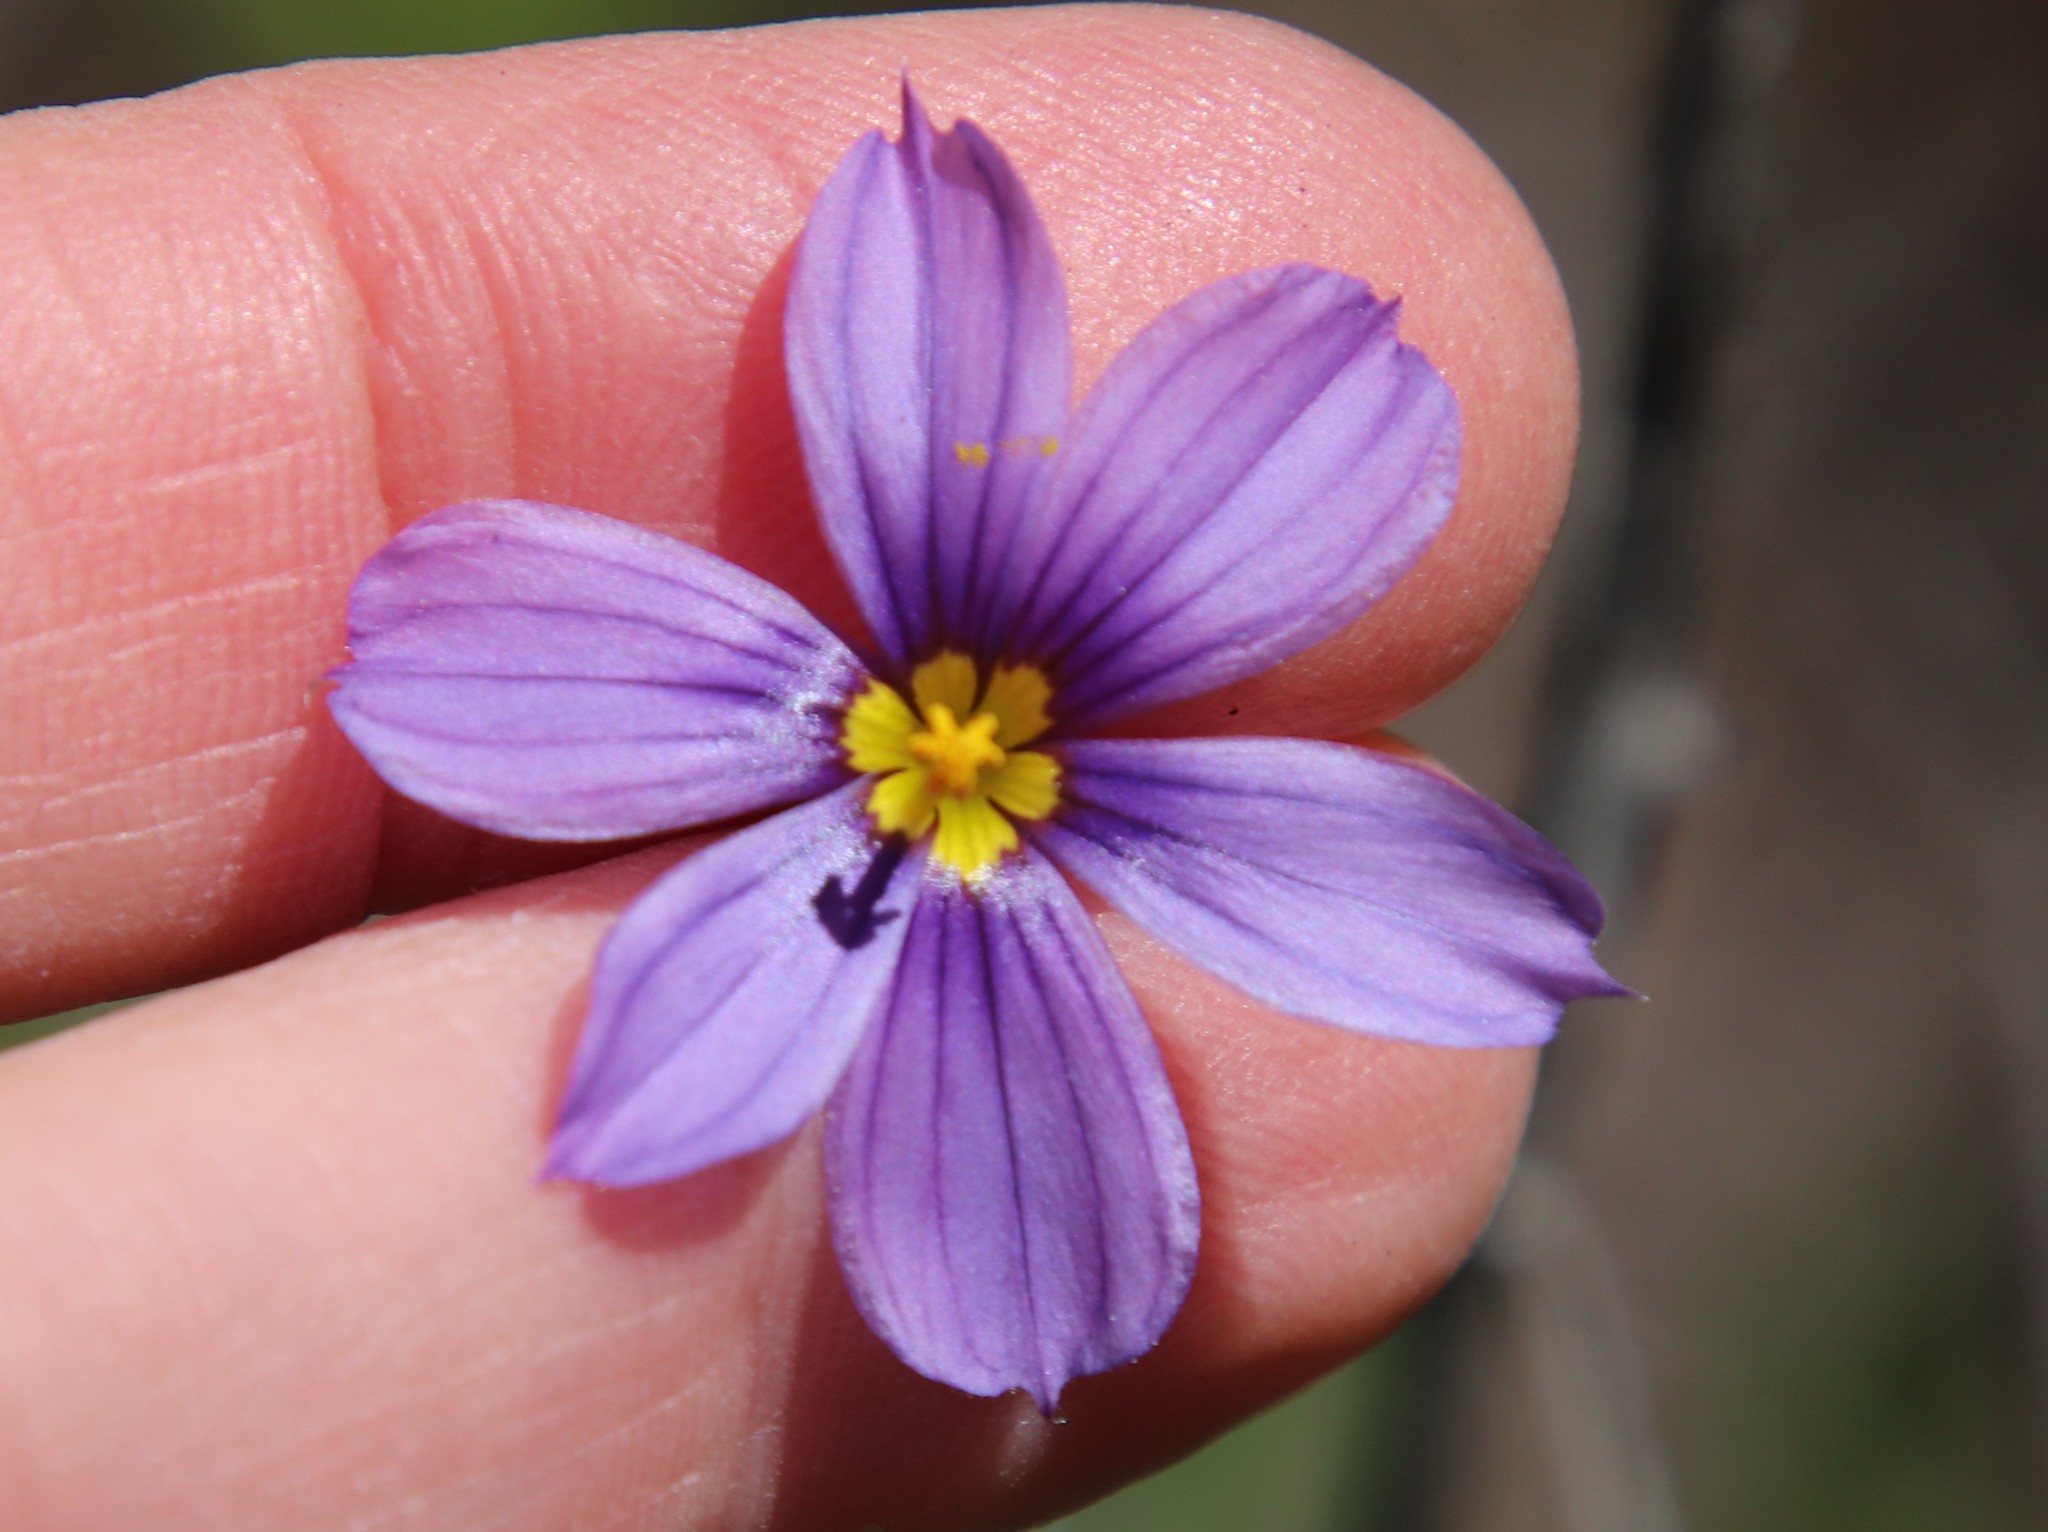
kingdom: Plantae
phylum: Tracheophyta
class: Liliopsida
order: Asparagales
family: Iridaceae
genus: Sisyrinchium
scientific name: Sisyrinchium bellum
